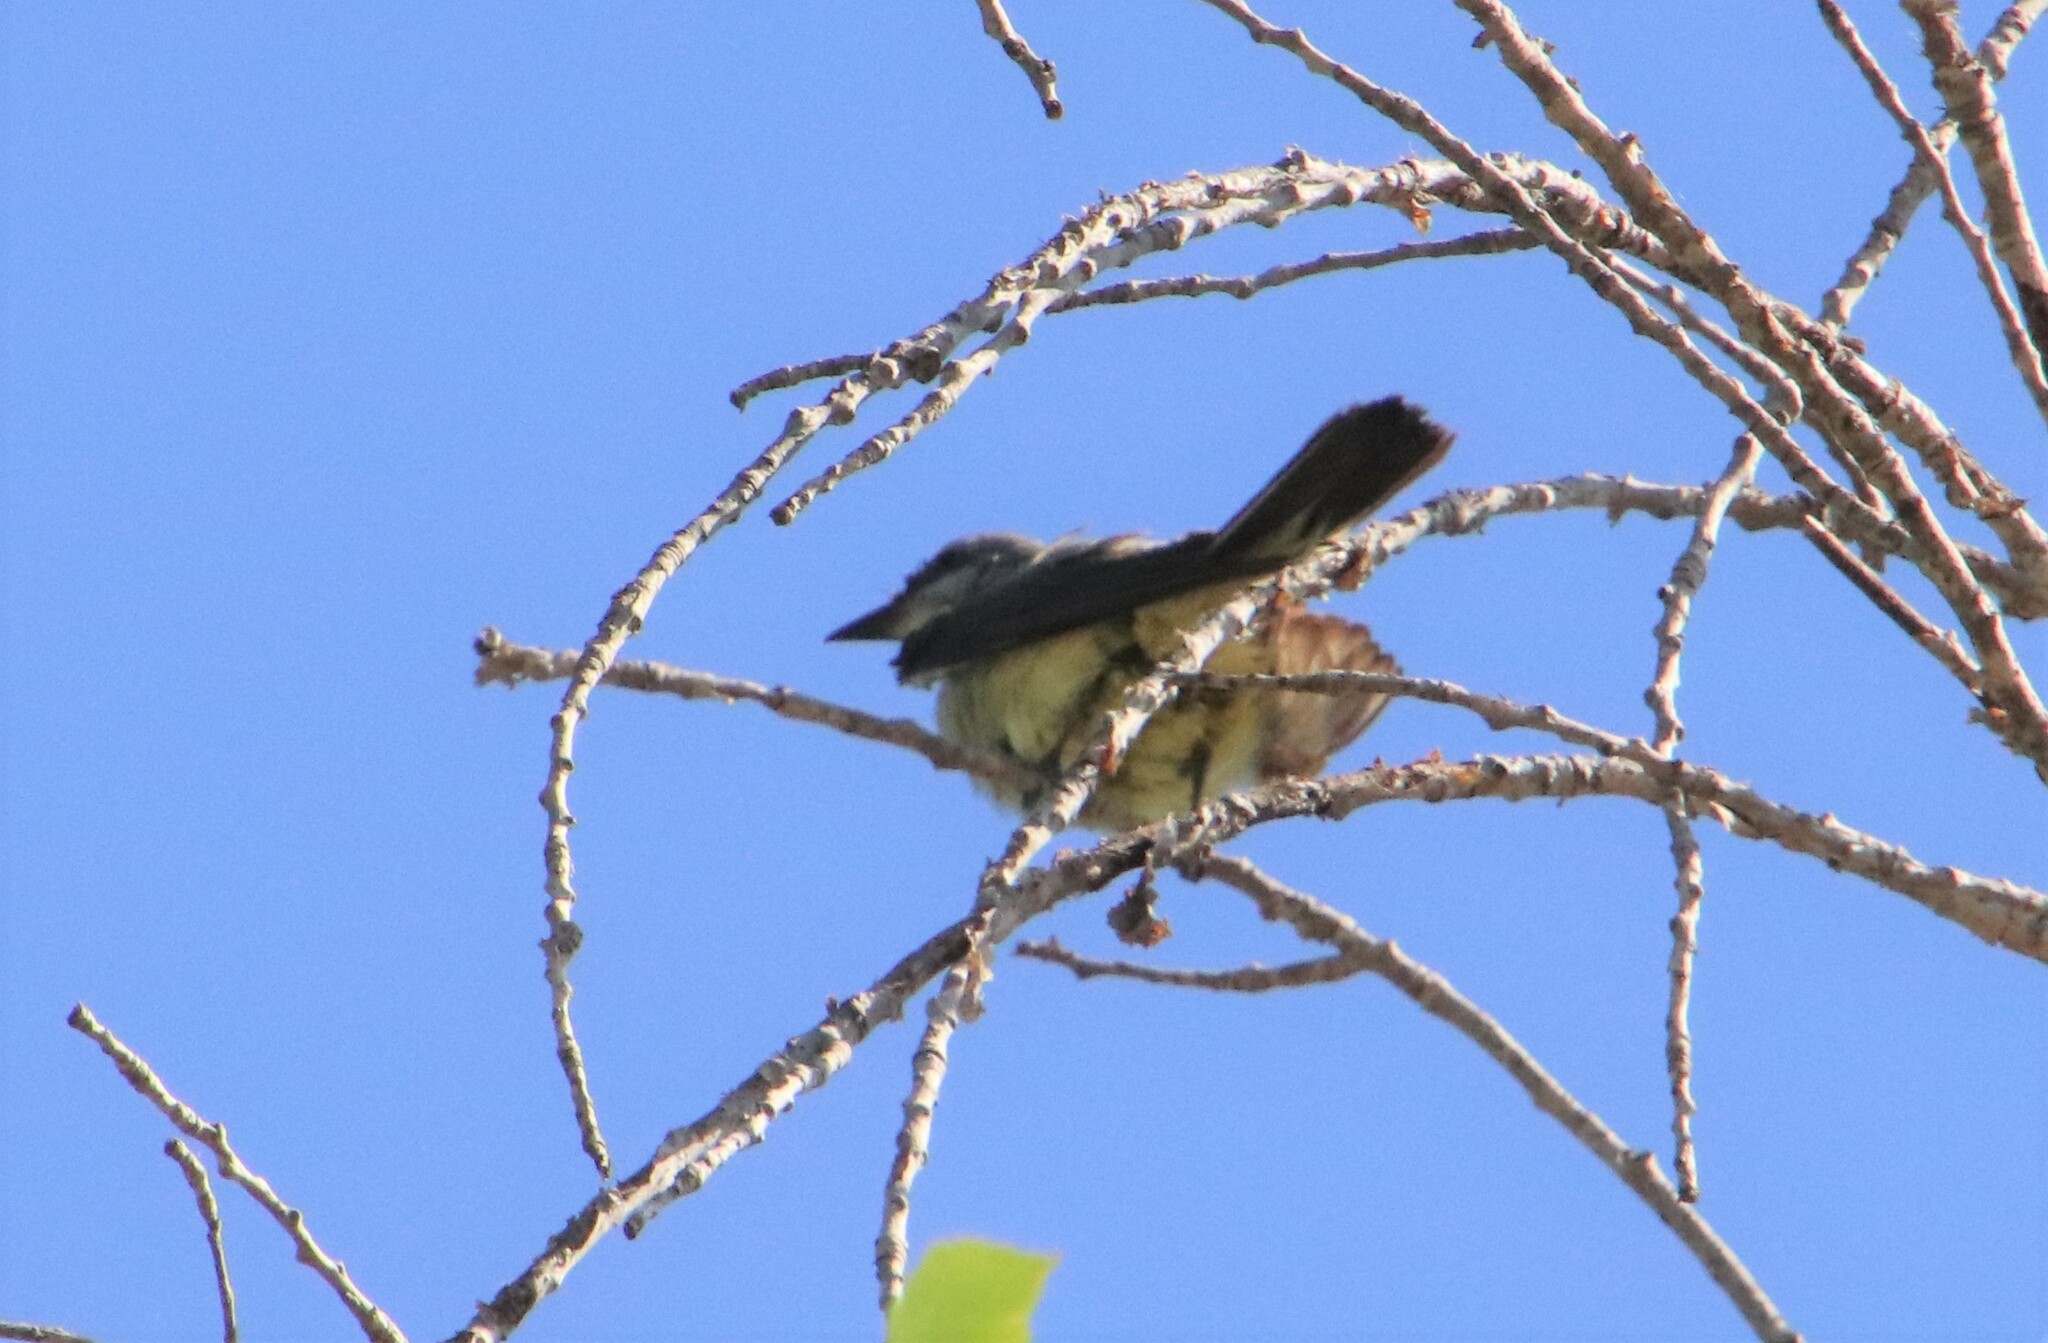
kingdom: Animalia
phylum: Chordata
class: Aves
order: Passeriformes
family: Tyrannidae
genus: Tyrannus
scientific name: Tyrannus verticalis
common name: Western kingbird
